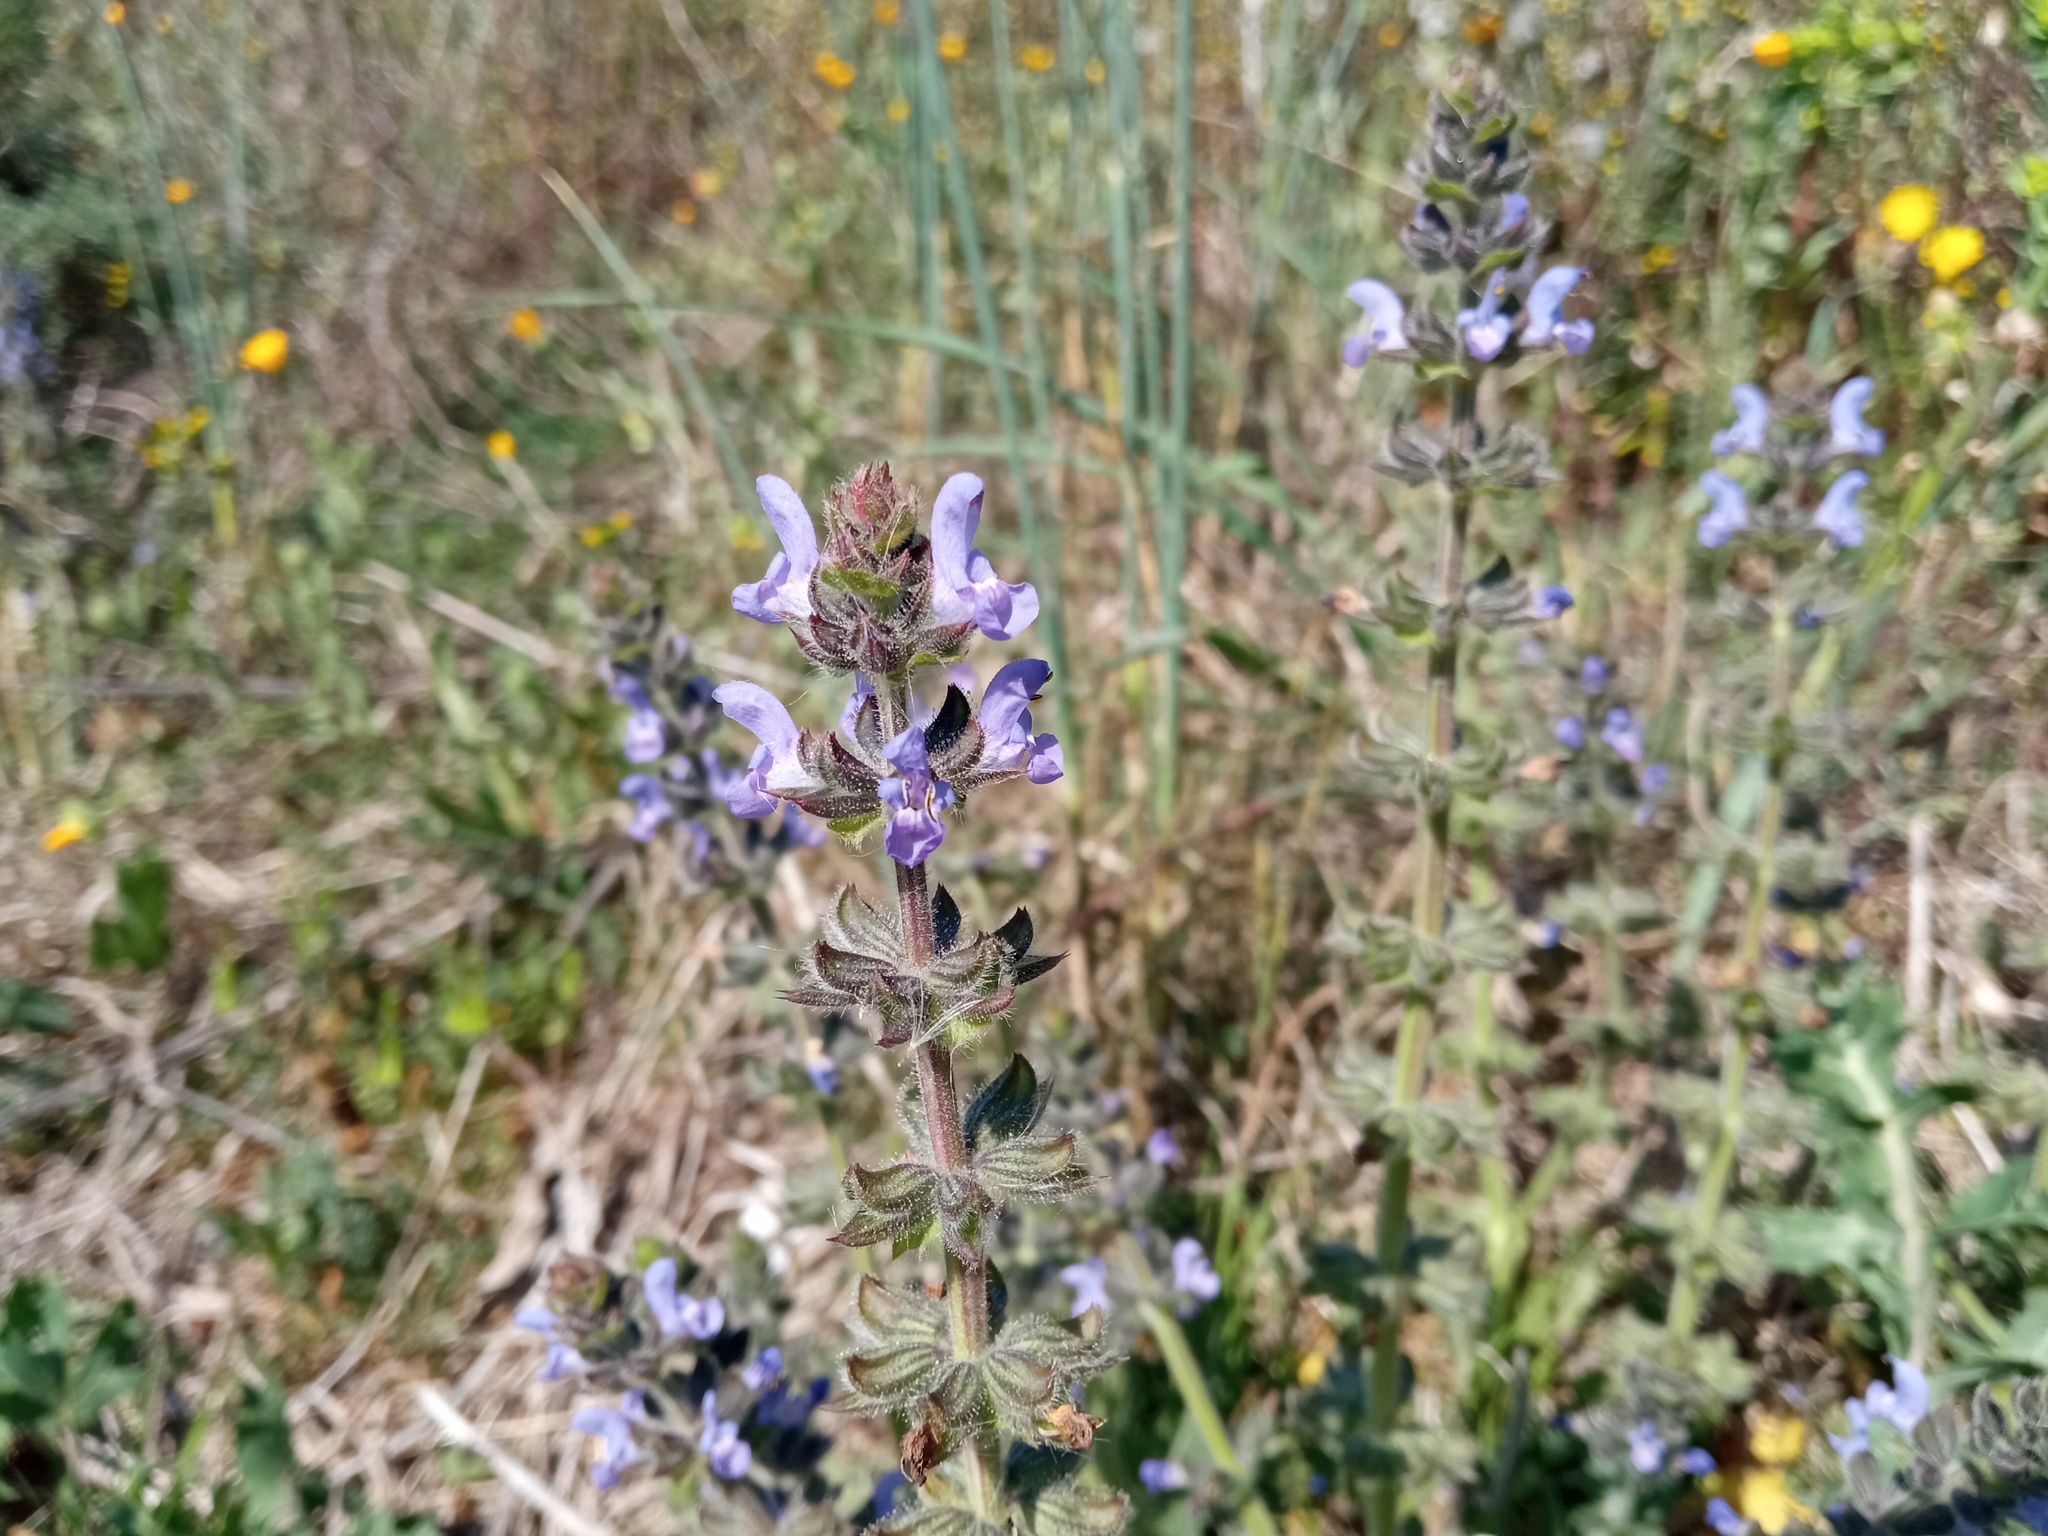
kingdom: Plantae
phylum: Tracheophyta
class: Magnoliopsida
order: Lamiales
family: Lamiaceae
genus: Salvia
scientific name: Salvia verbenaca
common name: Wild clary
